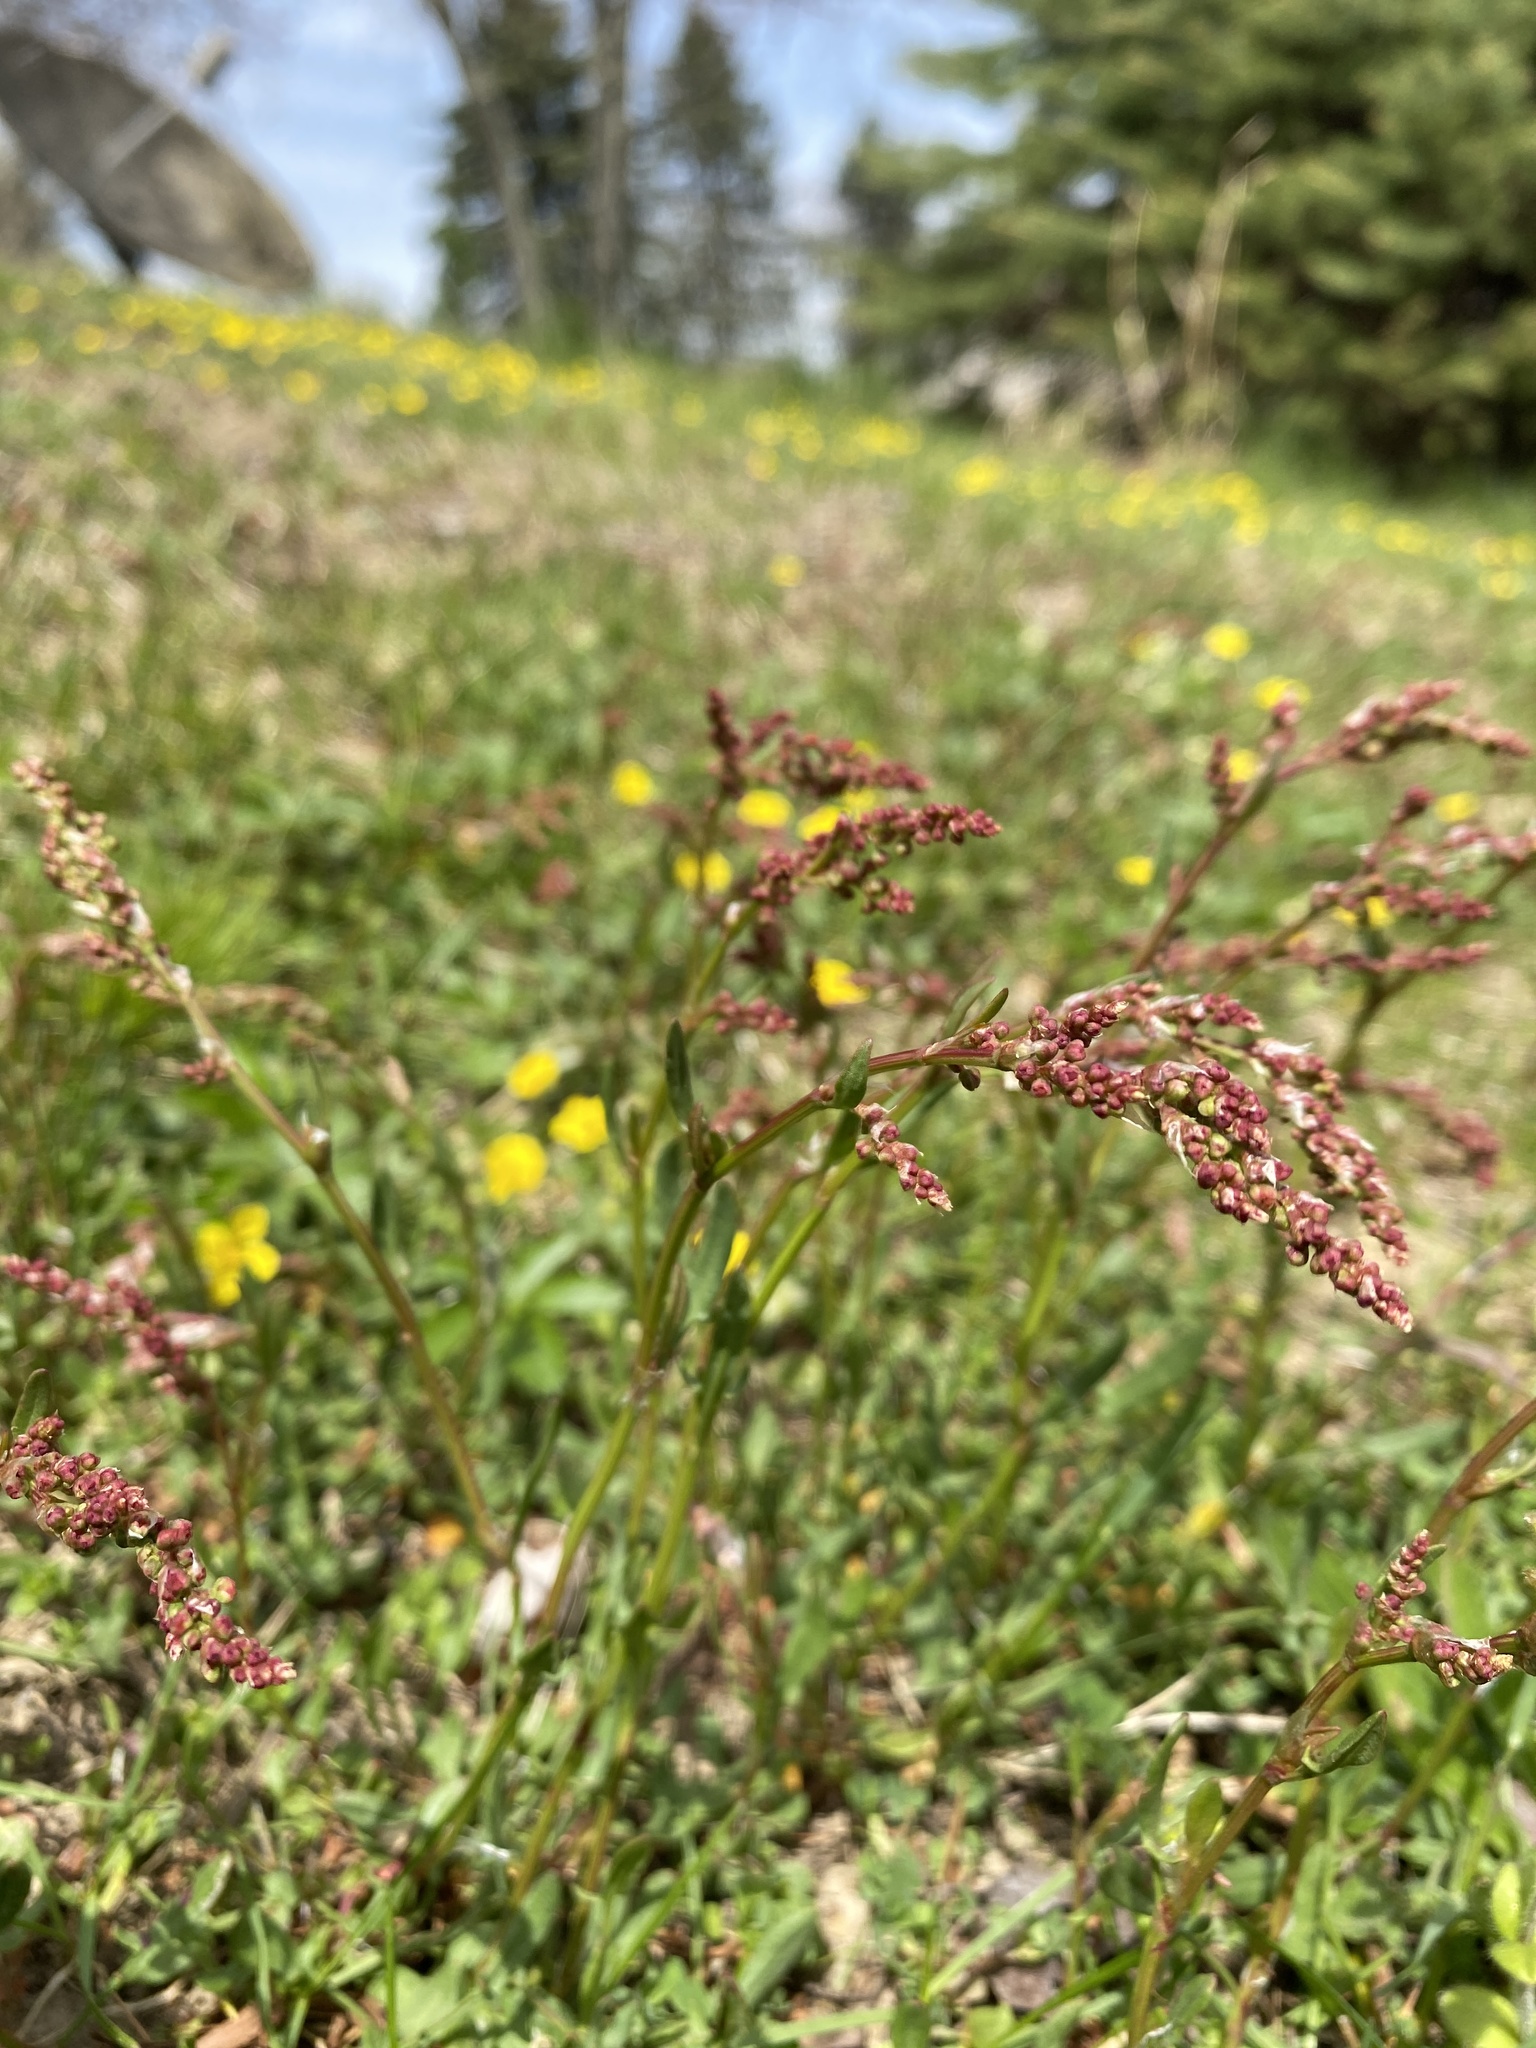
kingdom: Plantae
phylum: Tracheophyta
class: Magnoliopsida
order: Caryophyllales
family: Polygonaceae
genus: Rumex
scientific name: Rumex acetosella
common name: Common sheep sorrel
